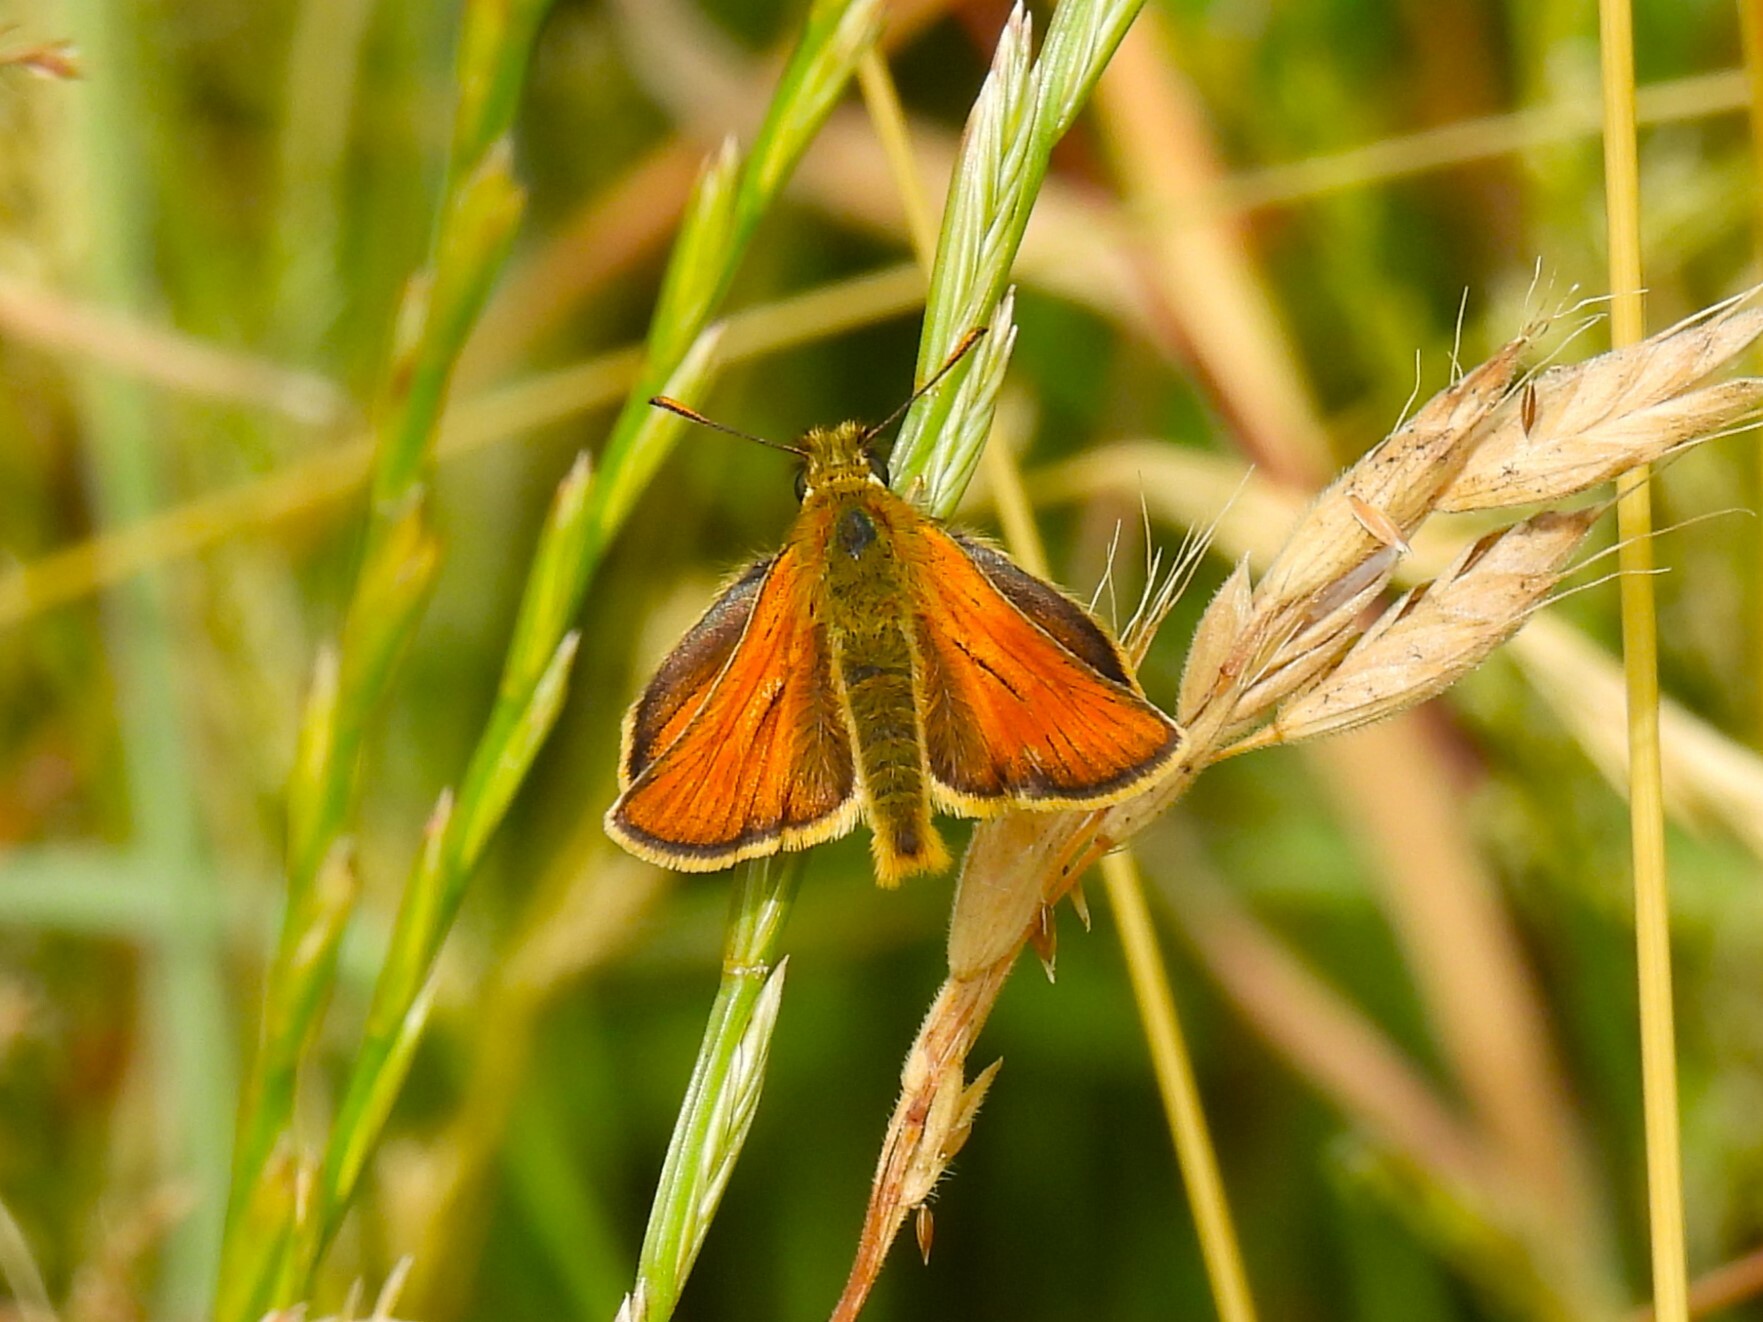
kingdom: Animalia
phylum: Arthropoda
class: Insecta
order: Lepidoptera
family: Hesperiidae
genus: Thymelicus
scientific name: Thymelicus sylvestris
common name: Small skipper
